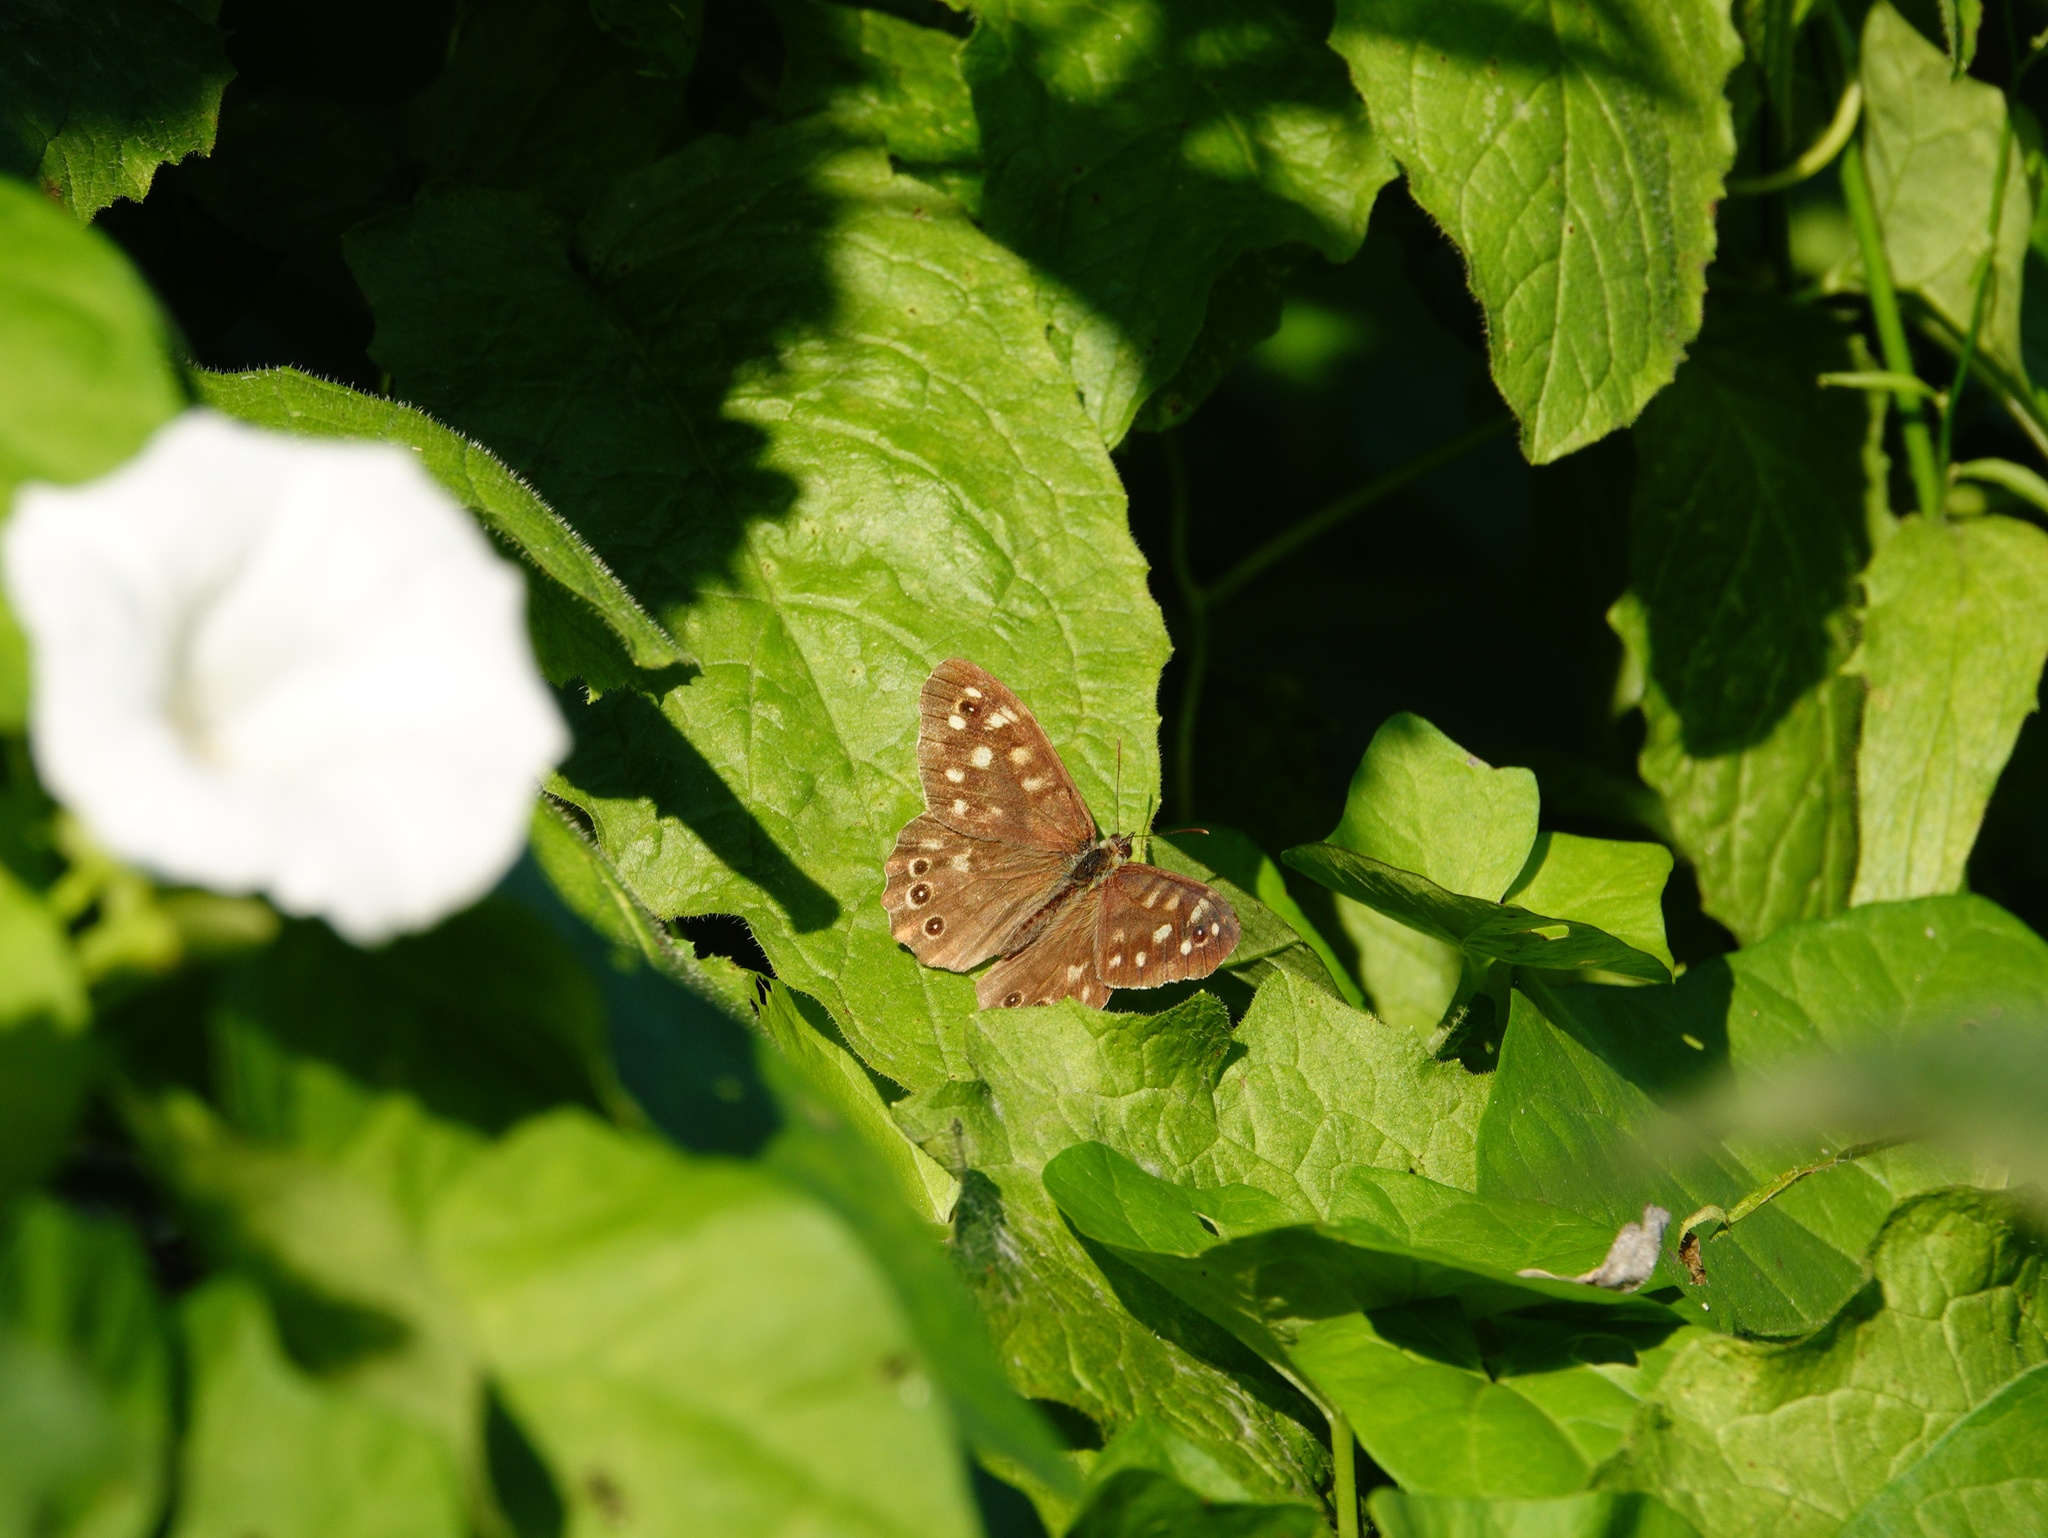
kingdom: Animalia
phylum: Arthropoda
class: Insecta
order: Lepidoptera
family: Nymphalidae
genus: Pararge
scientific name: Pararge aegeria
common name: Speckled wood
